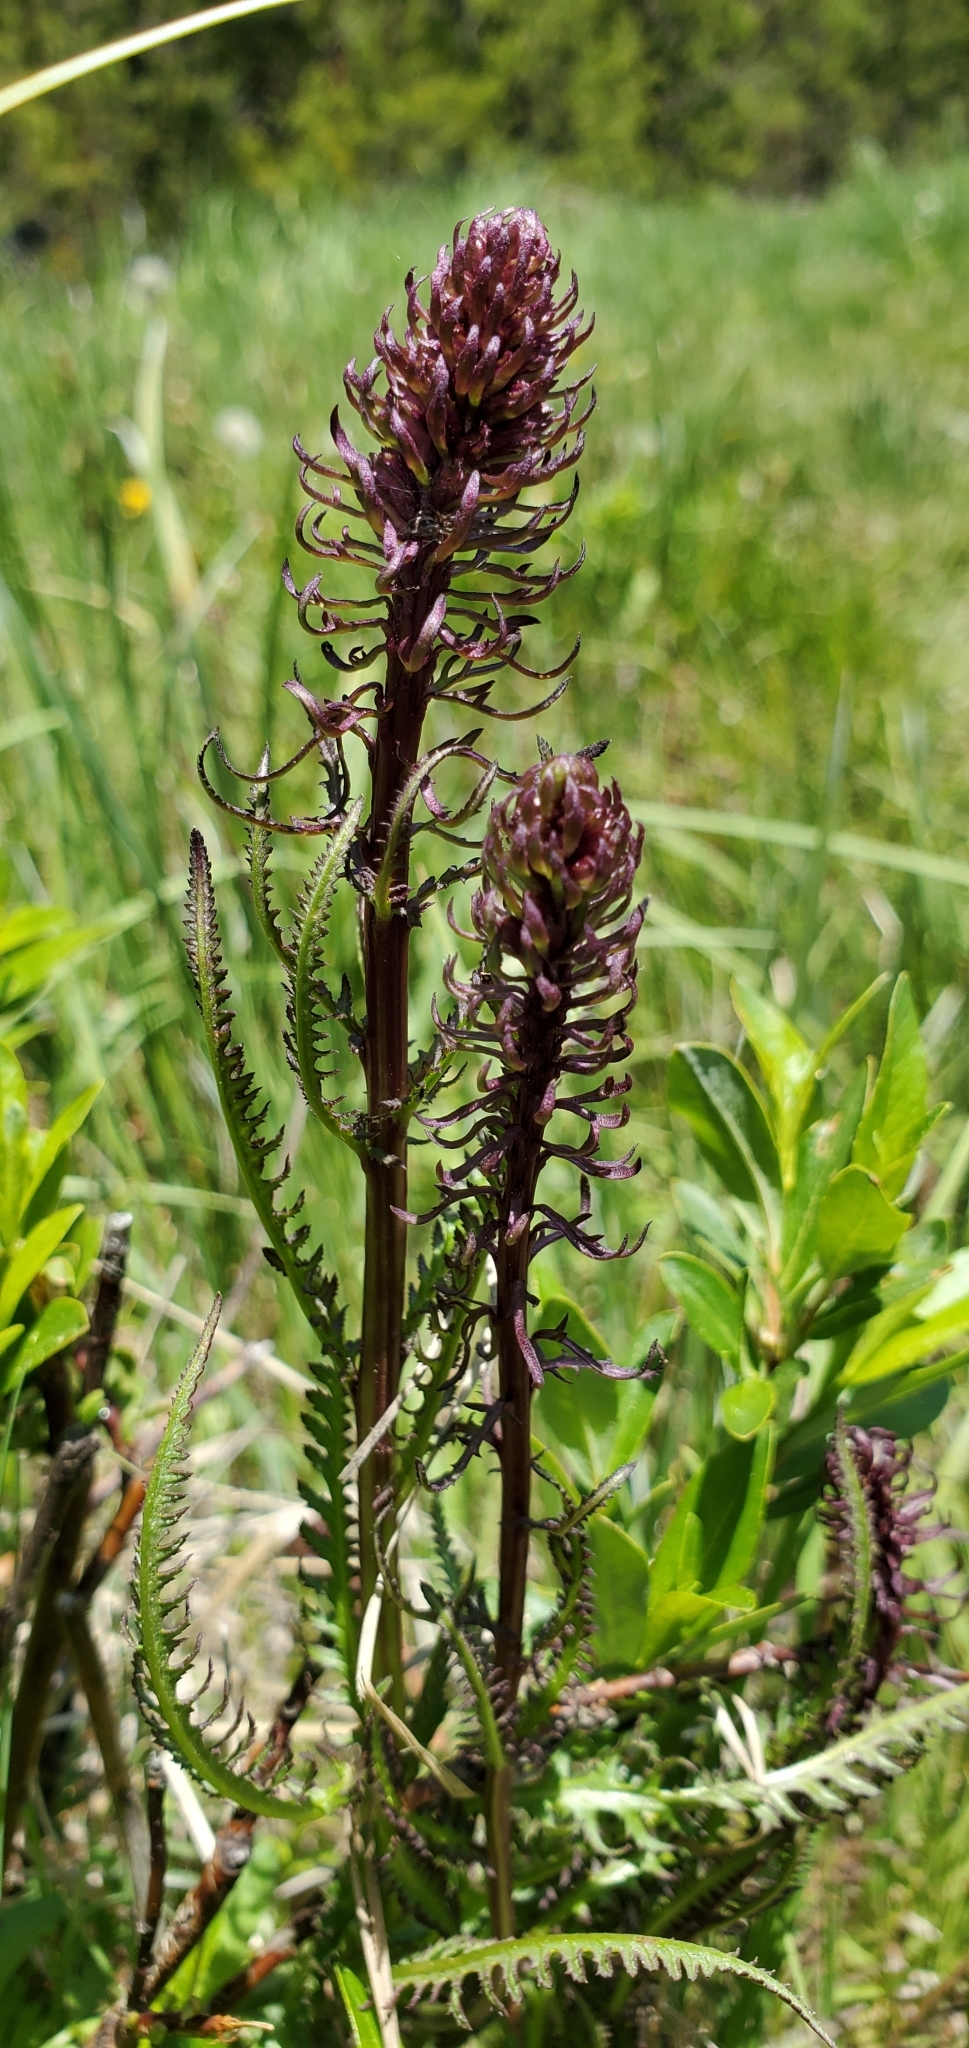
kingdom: Plantae
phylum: Tracheophyta
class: Magnoliopsida
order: Lamiales
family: Orobanchaceae
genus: Pedicularis
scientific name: Pedicularis groenlandica
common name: Elephant's-head
